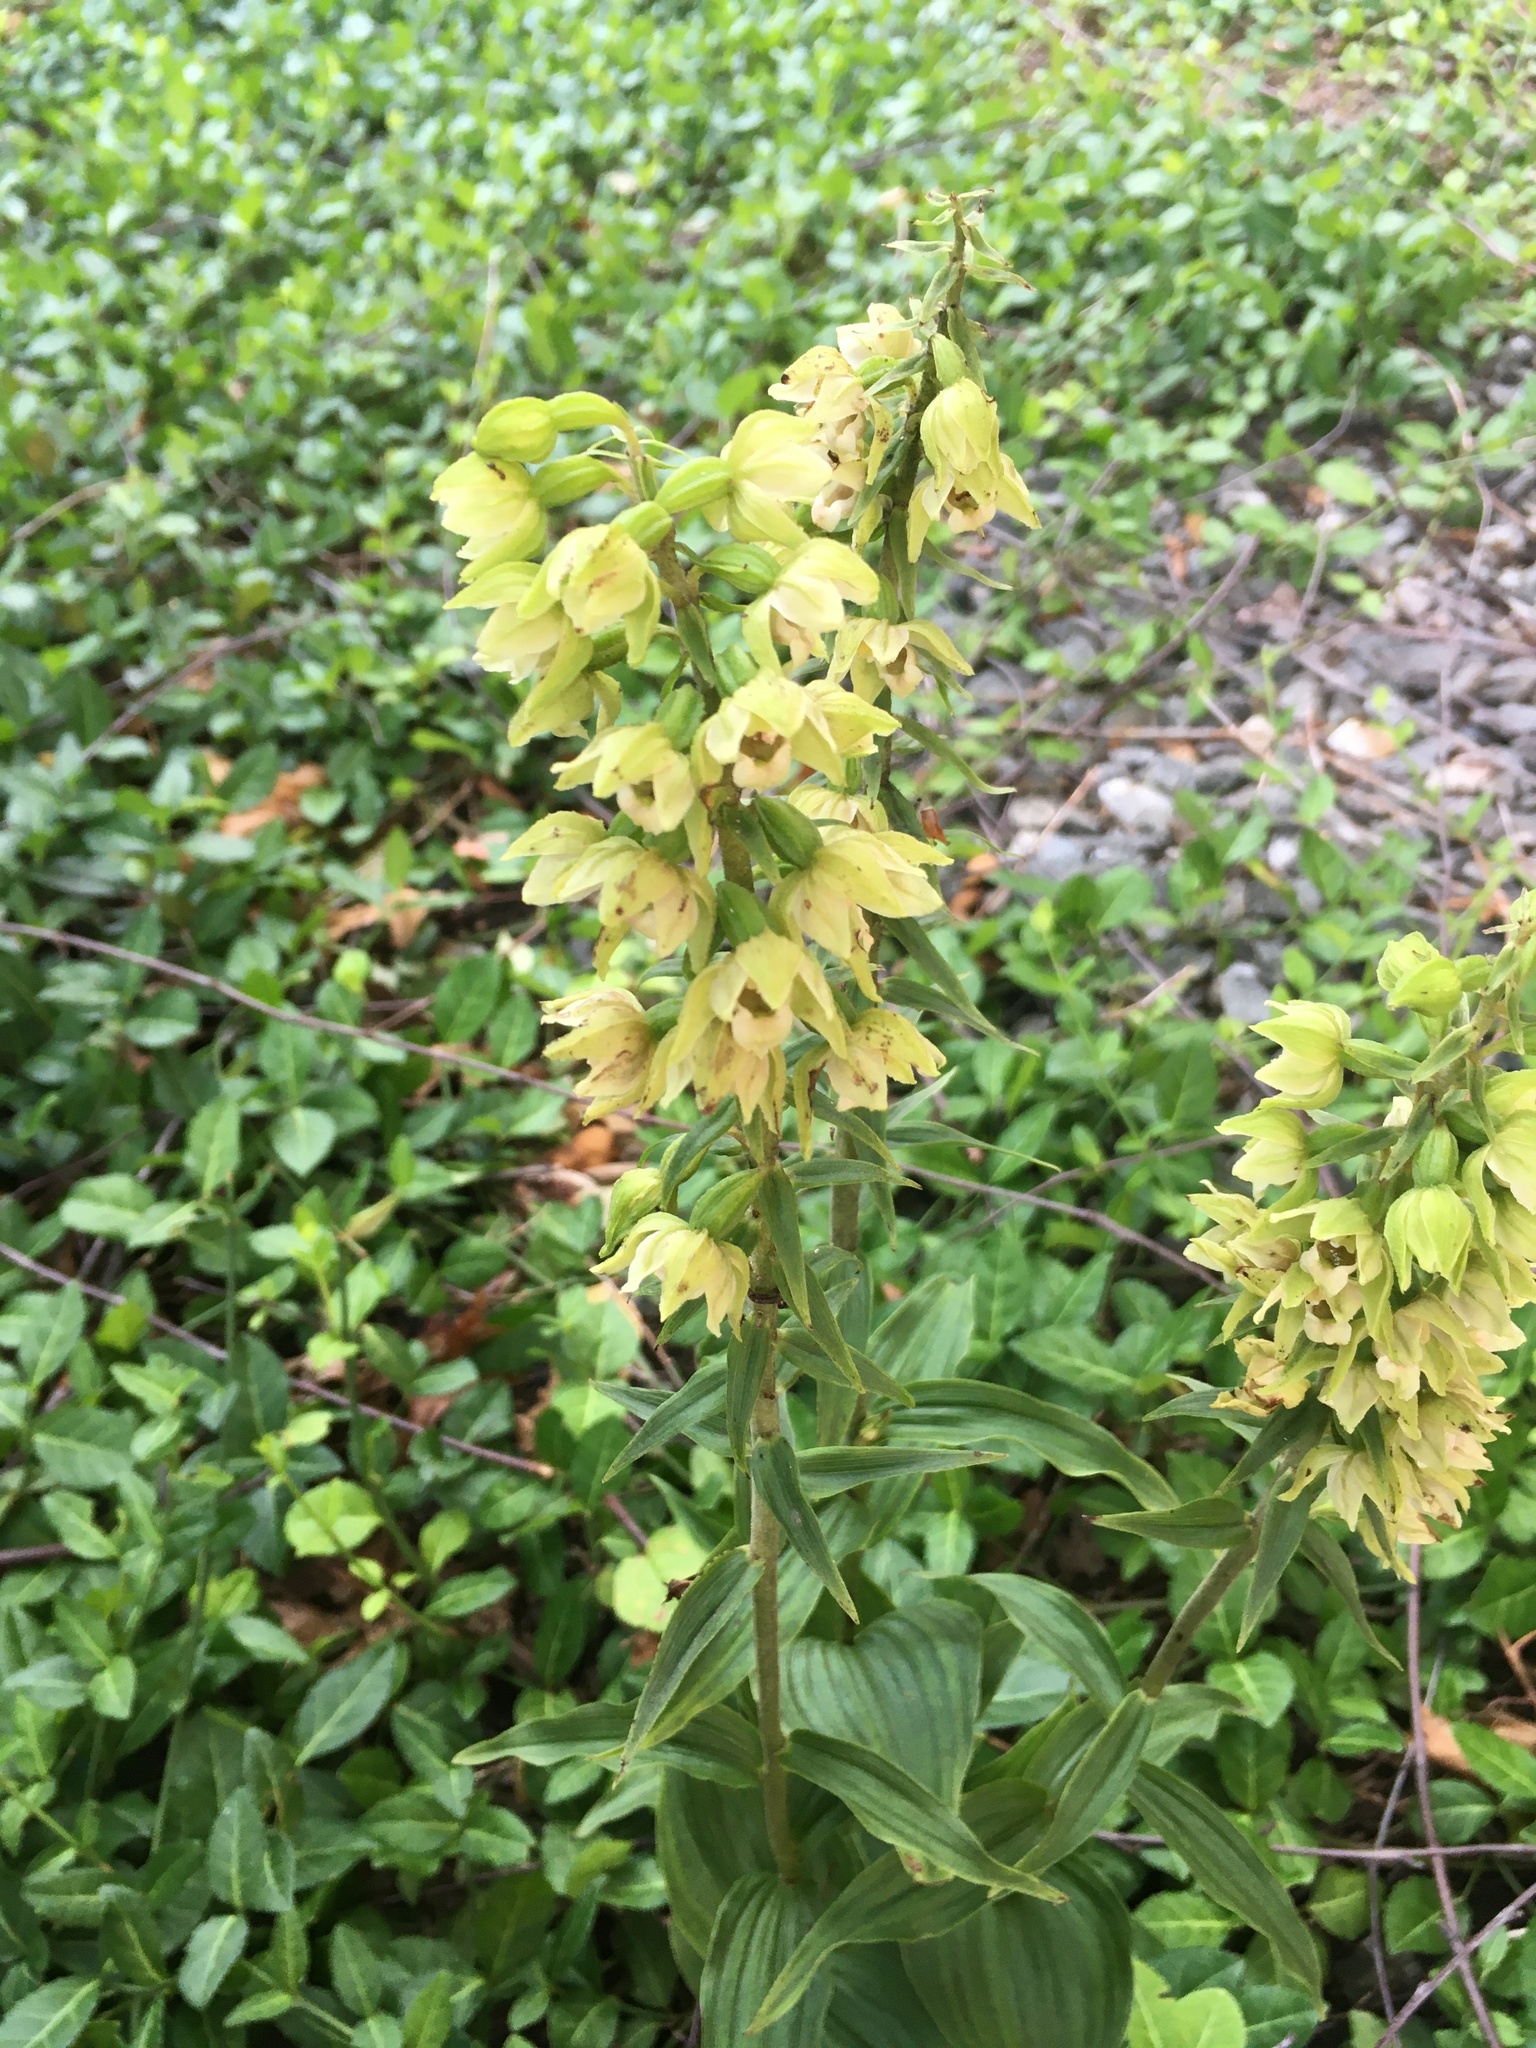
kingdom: Plantae
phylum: Tracheophyta
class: Liliopsida
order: Asparagales
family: Orchidaceae
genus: Epipactis
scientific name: Epipactis helleborine
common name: Broad-leaved helleborine
